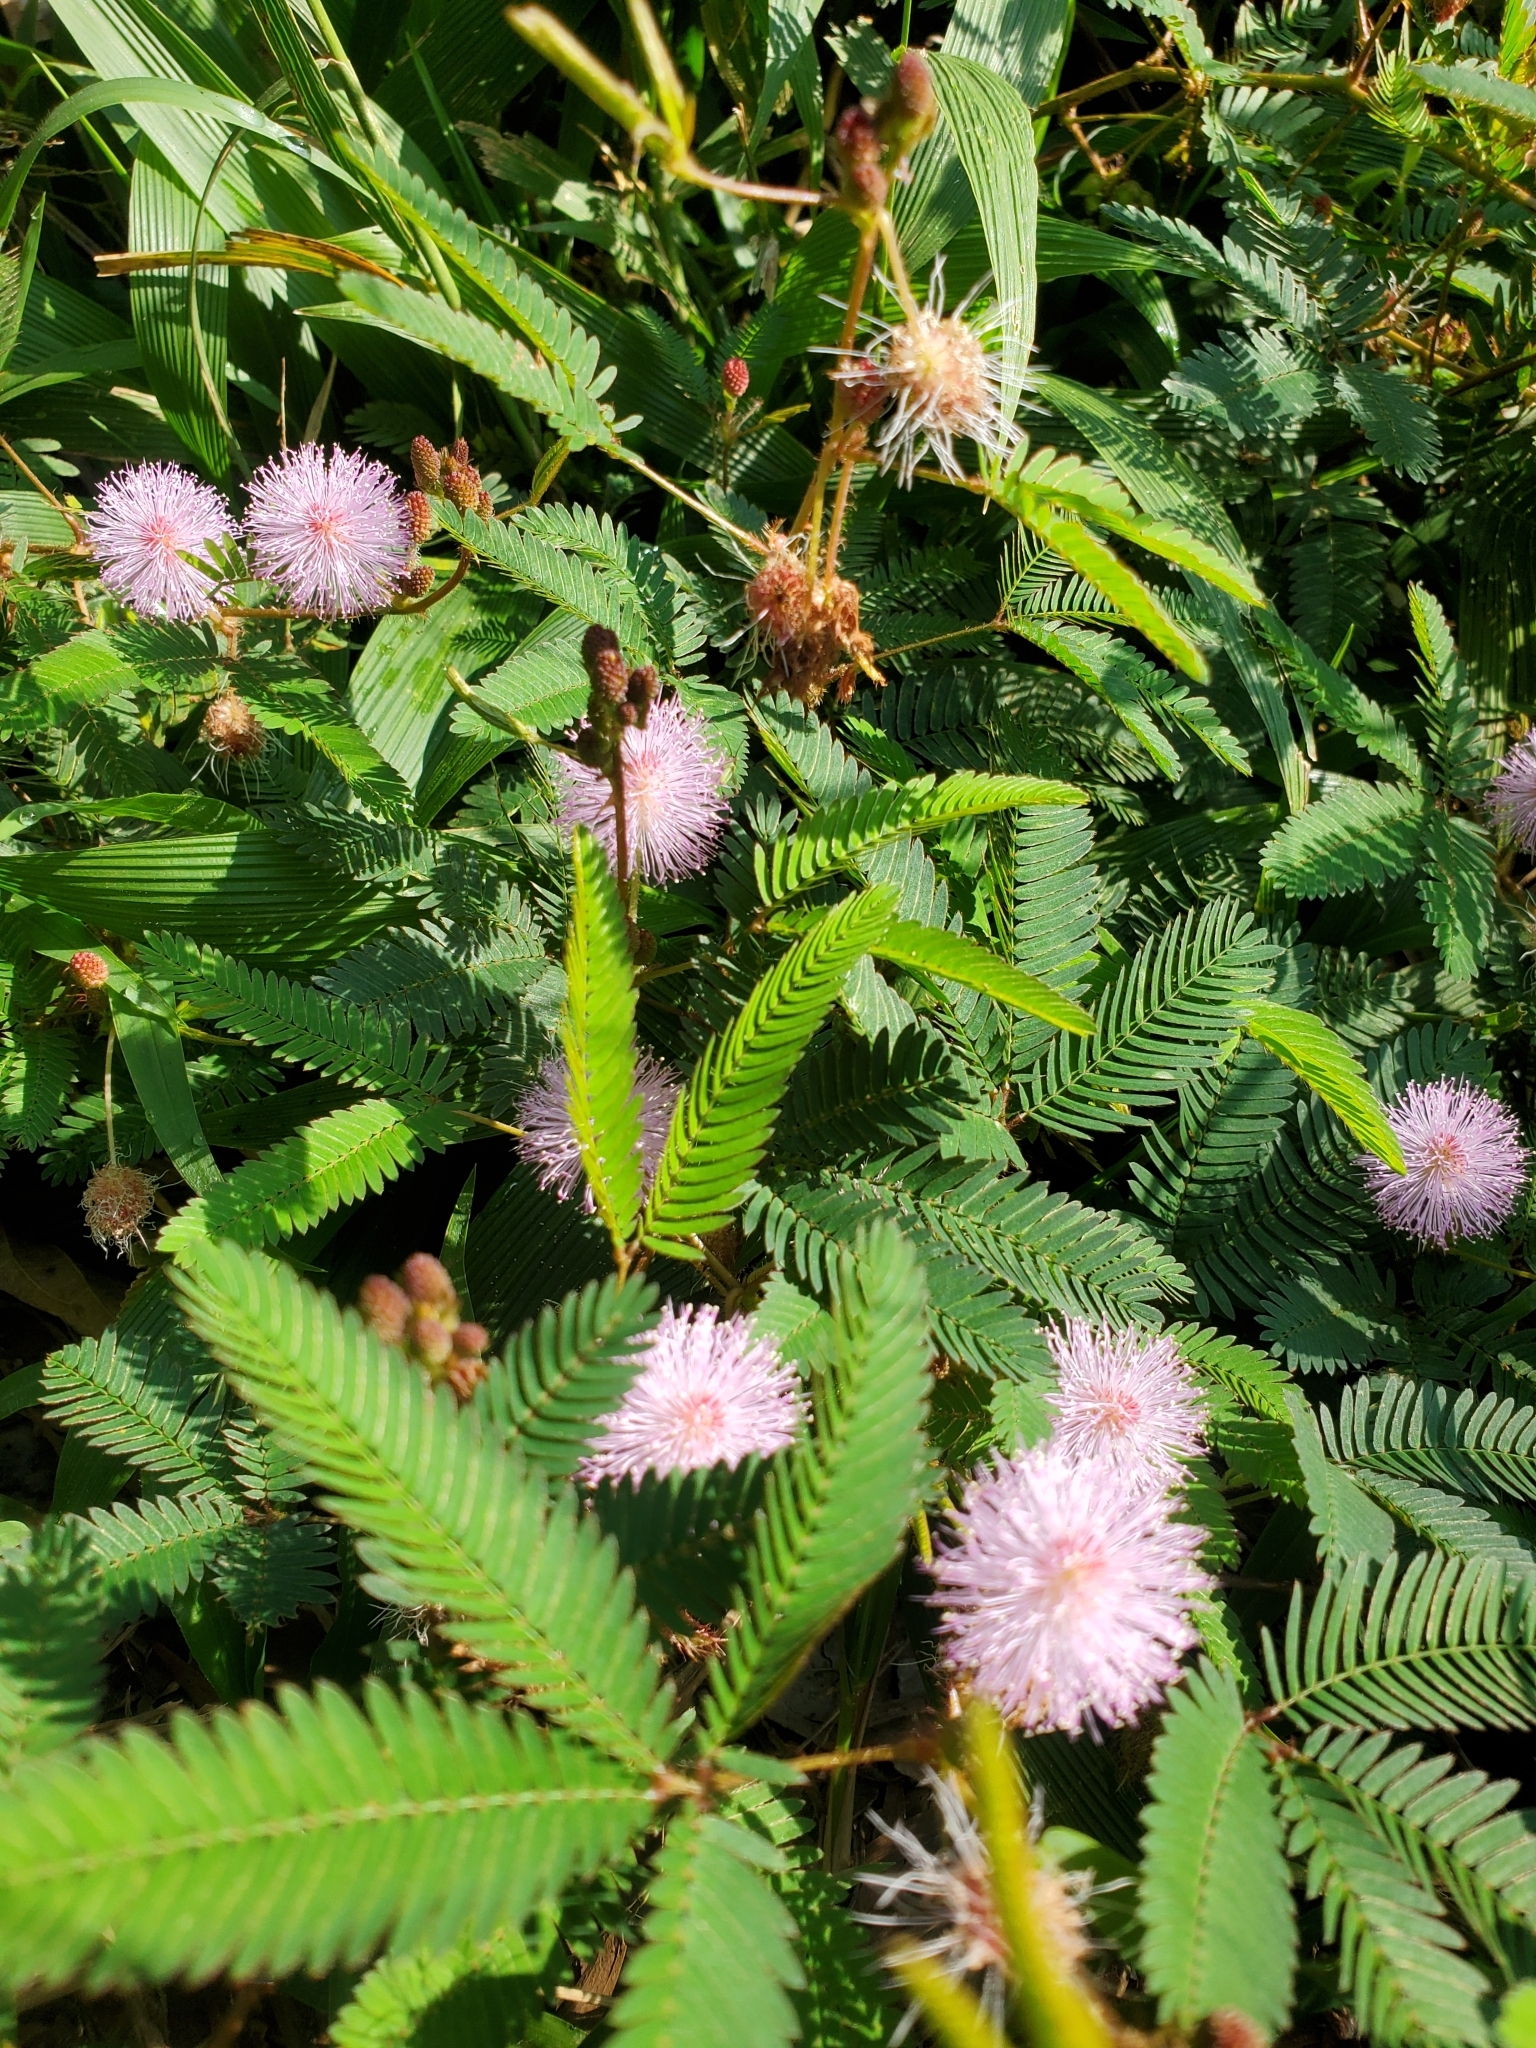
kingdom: Plantae
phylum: Tracheophyta
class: Magnoliopsida
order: Fabales
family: Fabaceae
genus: Mimosa
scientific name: Mimosa pudica
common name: Sensitive plant
